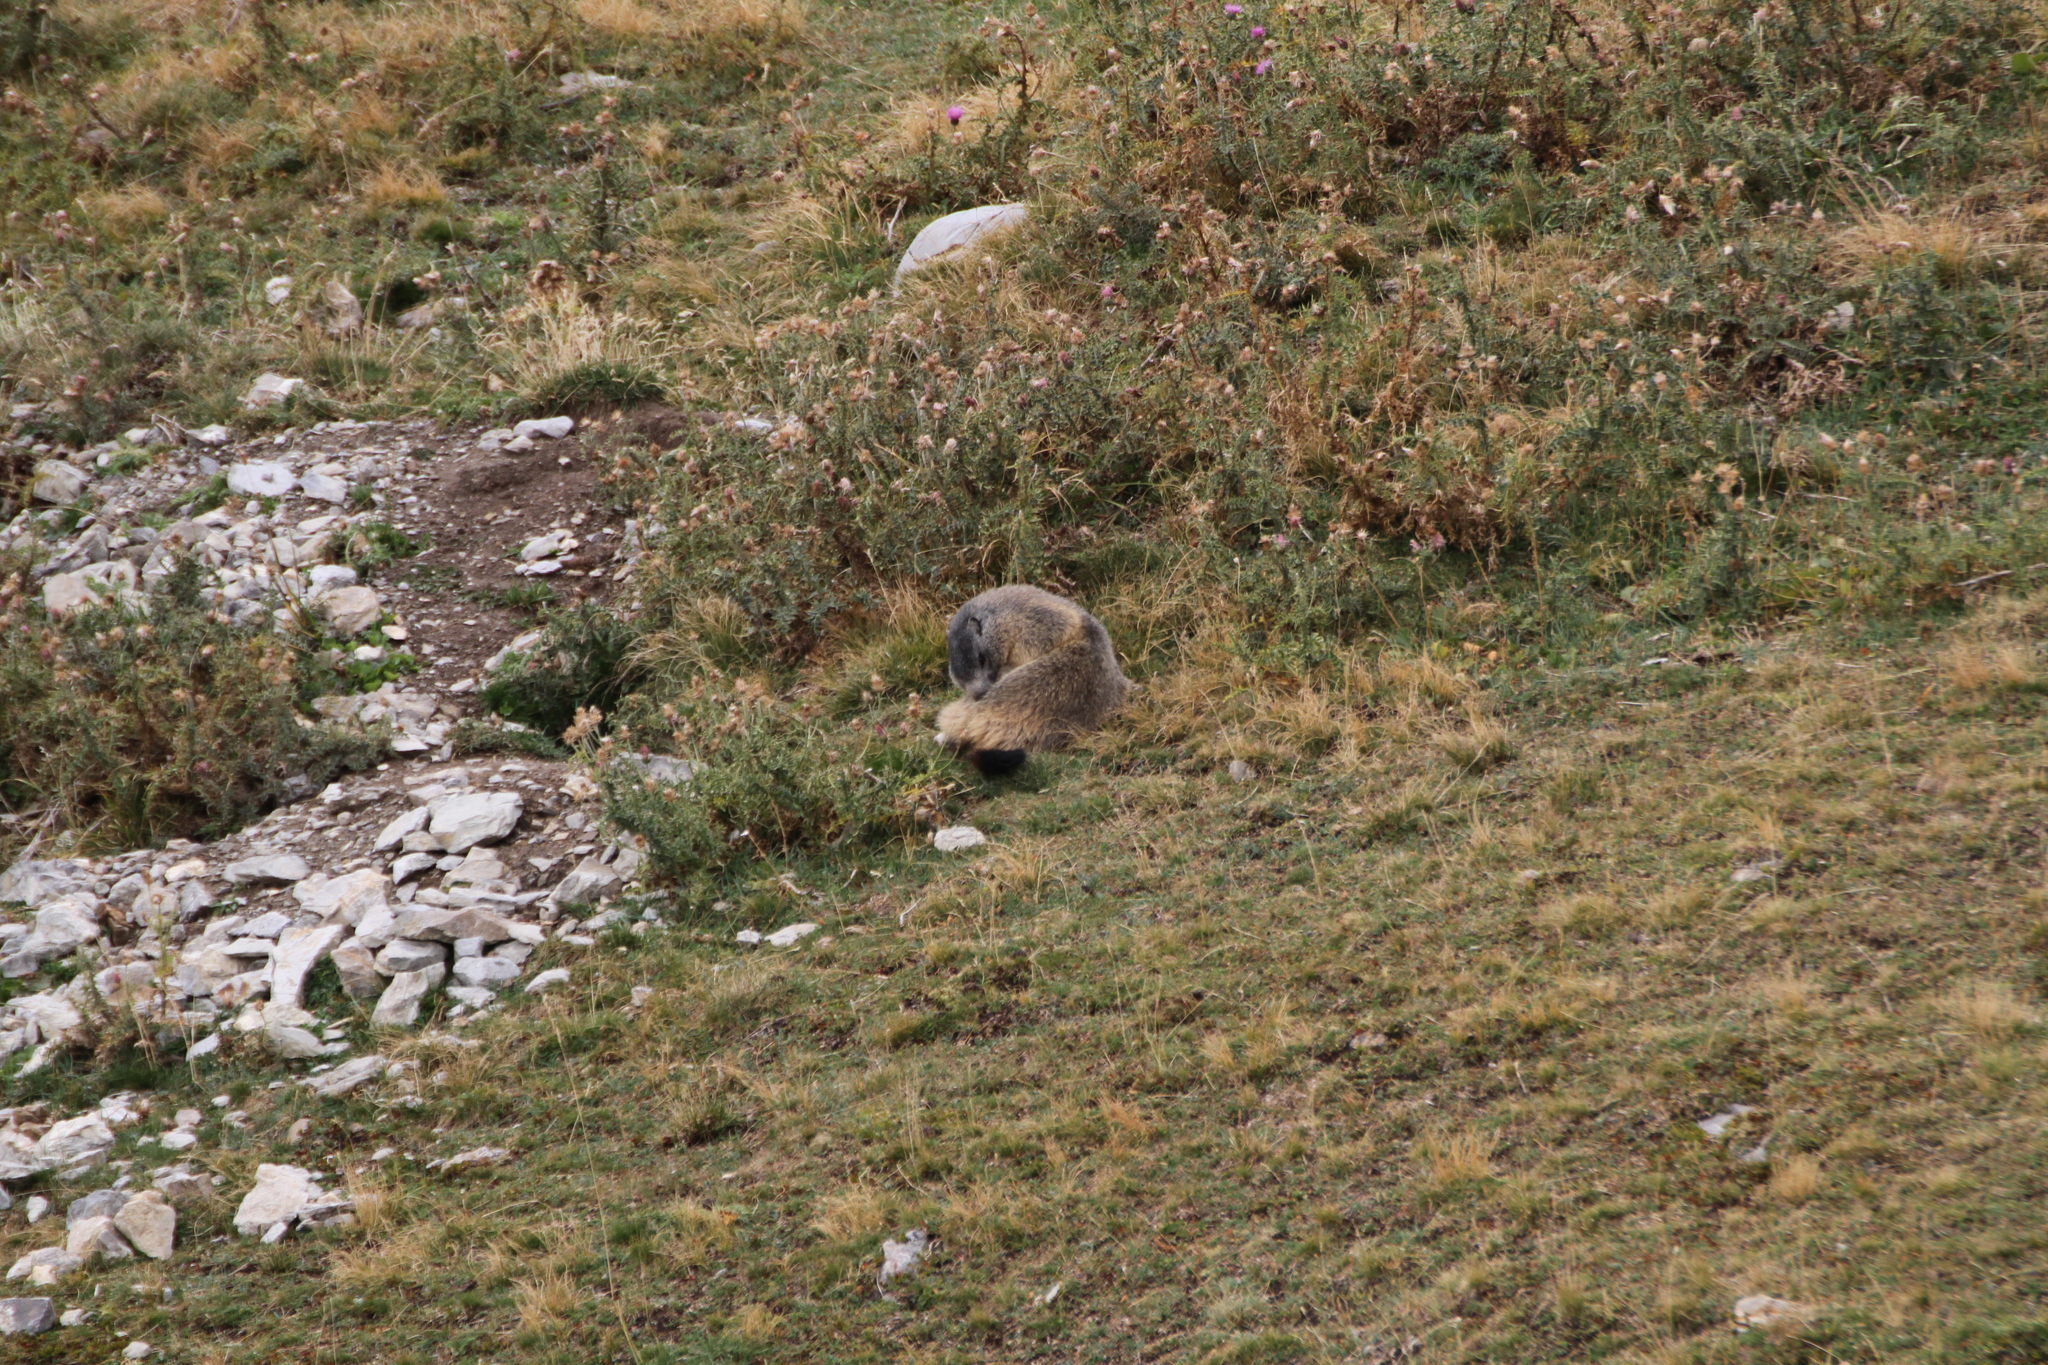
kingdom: Animalia
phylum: Chordata
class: Mammalia
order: Rodentia
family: Sciuridae
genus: Marmota
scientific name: Marmota marmota
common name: Alpine marmot
